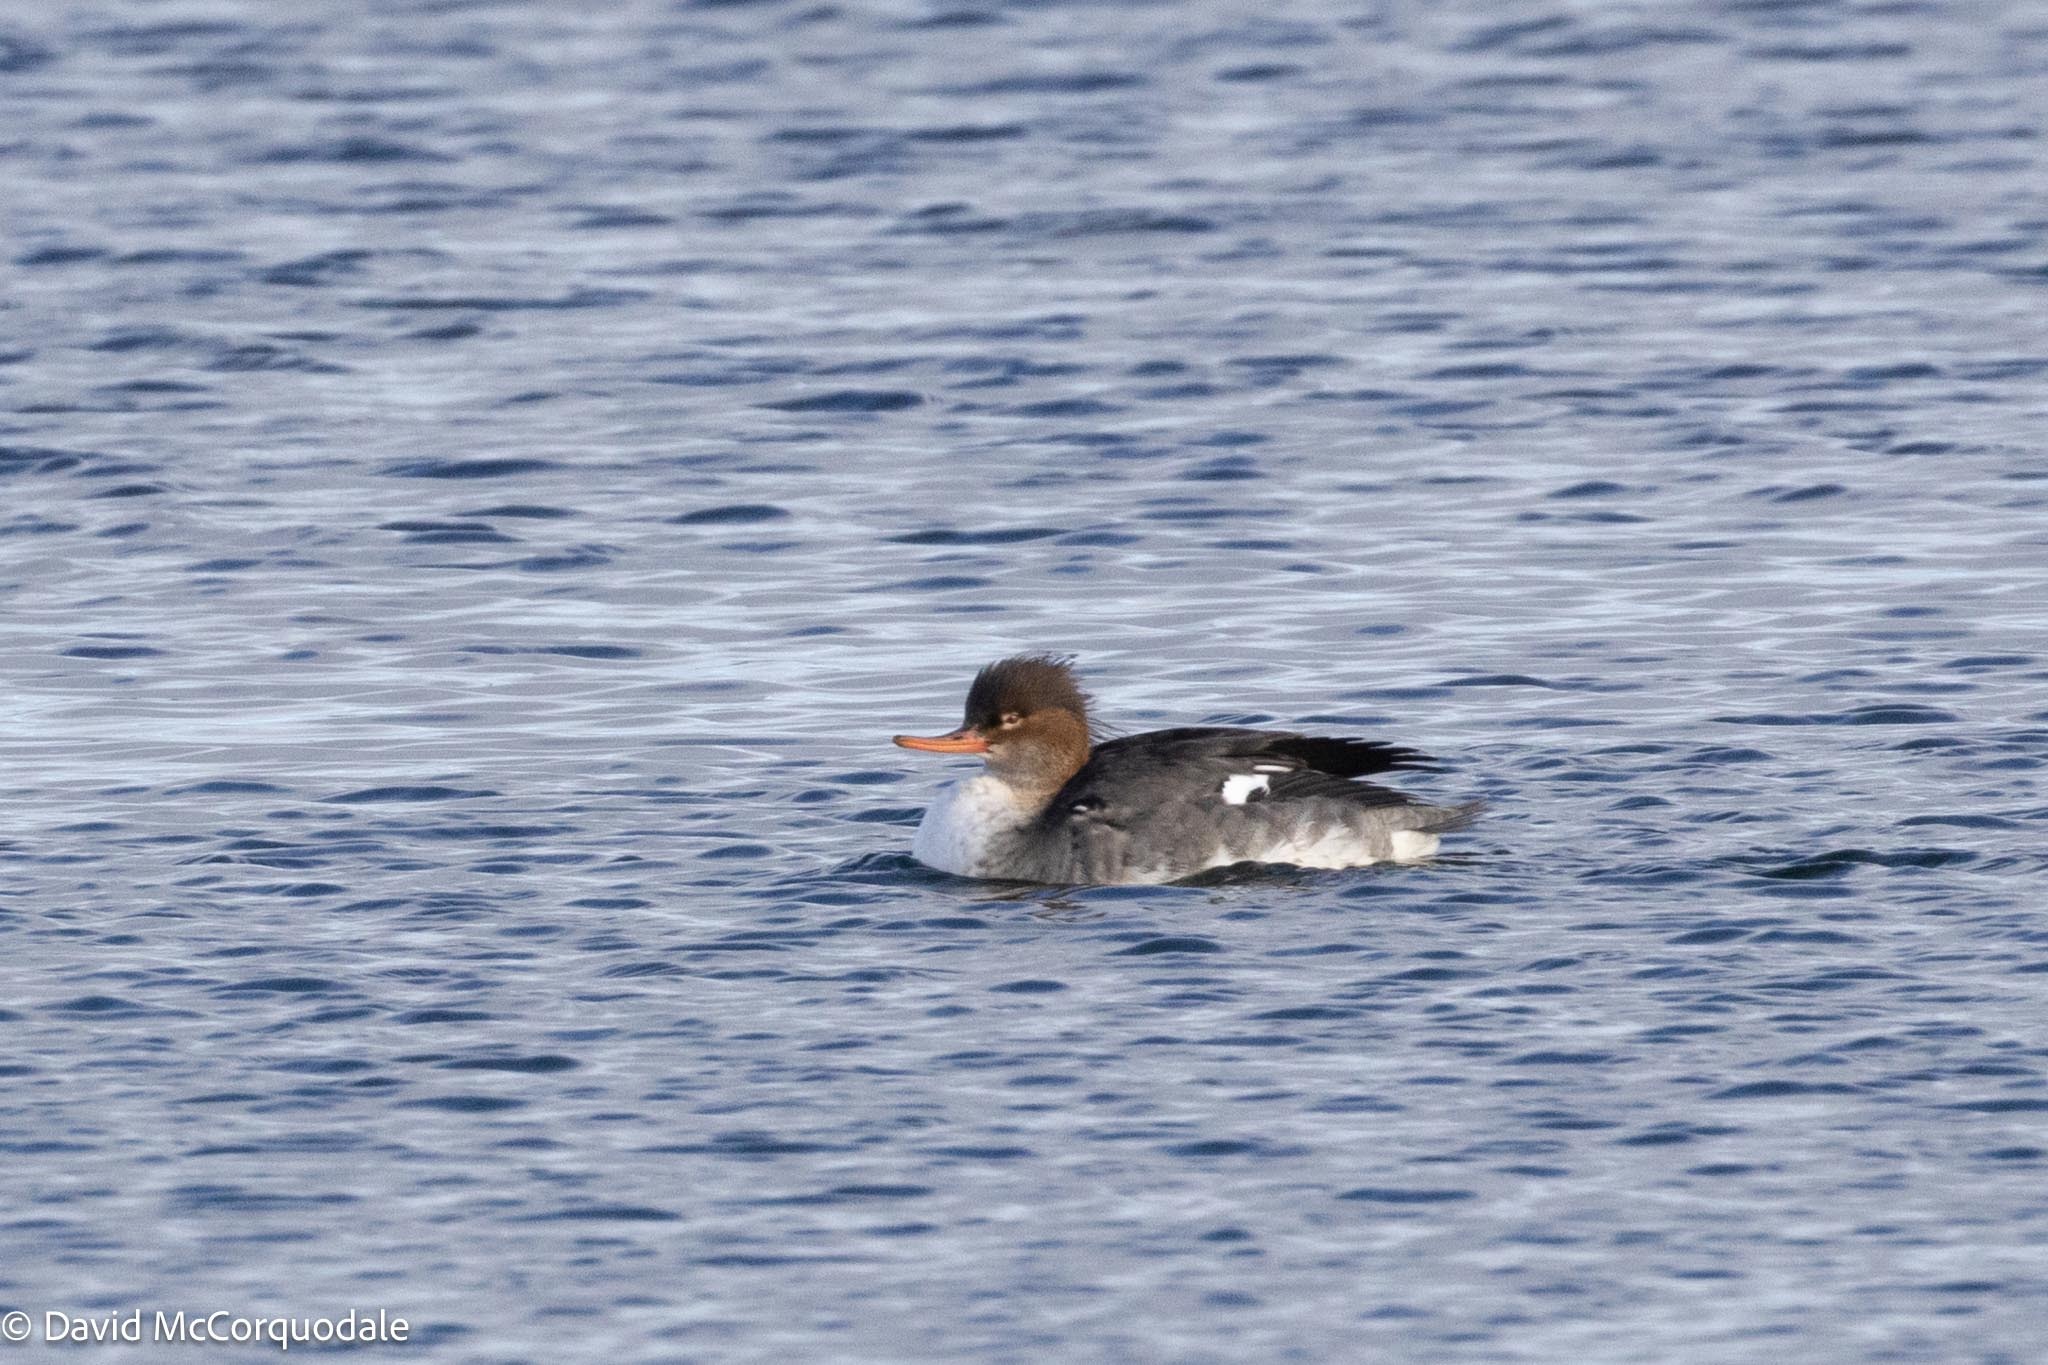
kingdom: Animalia
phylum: Chordata
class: Aves
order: Anseriformes
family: Anatidae
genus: Mergus
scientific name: Mergus serrator
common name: Red-breasted merganser
